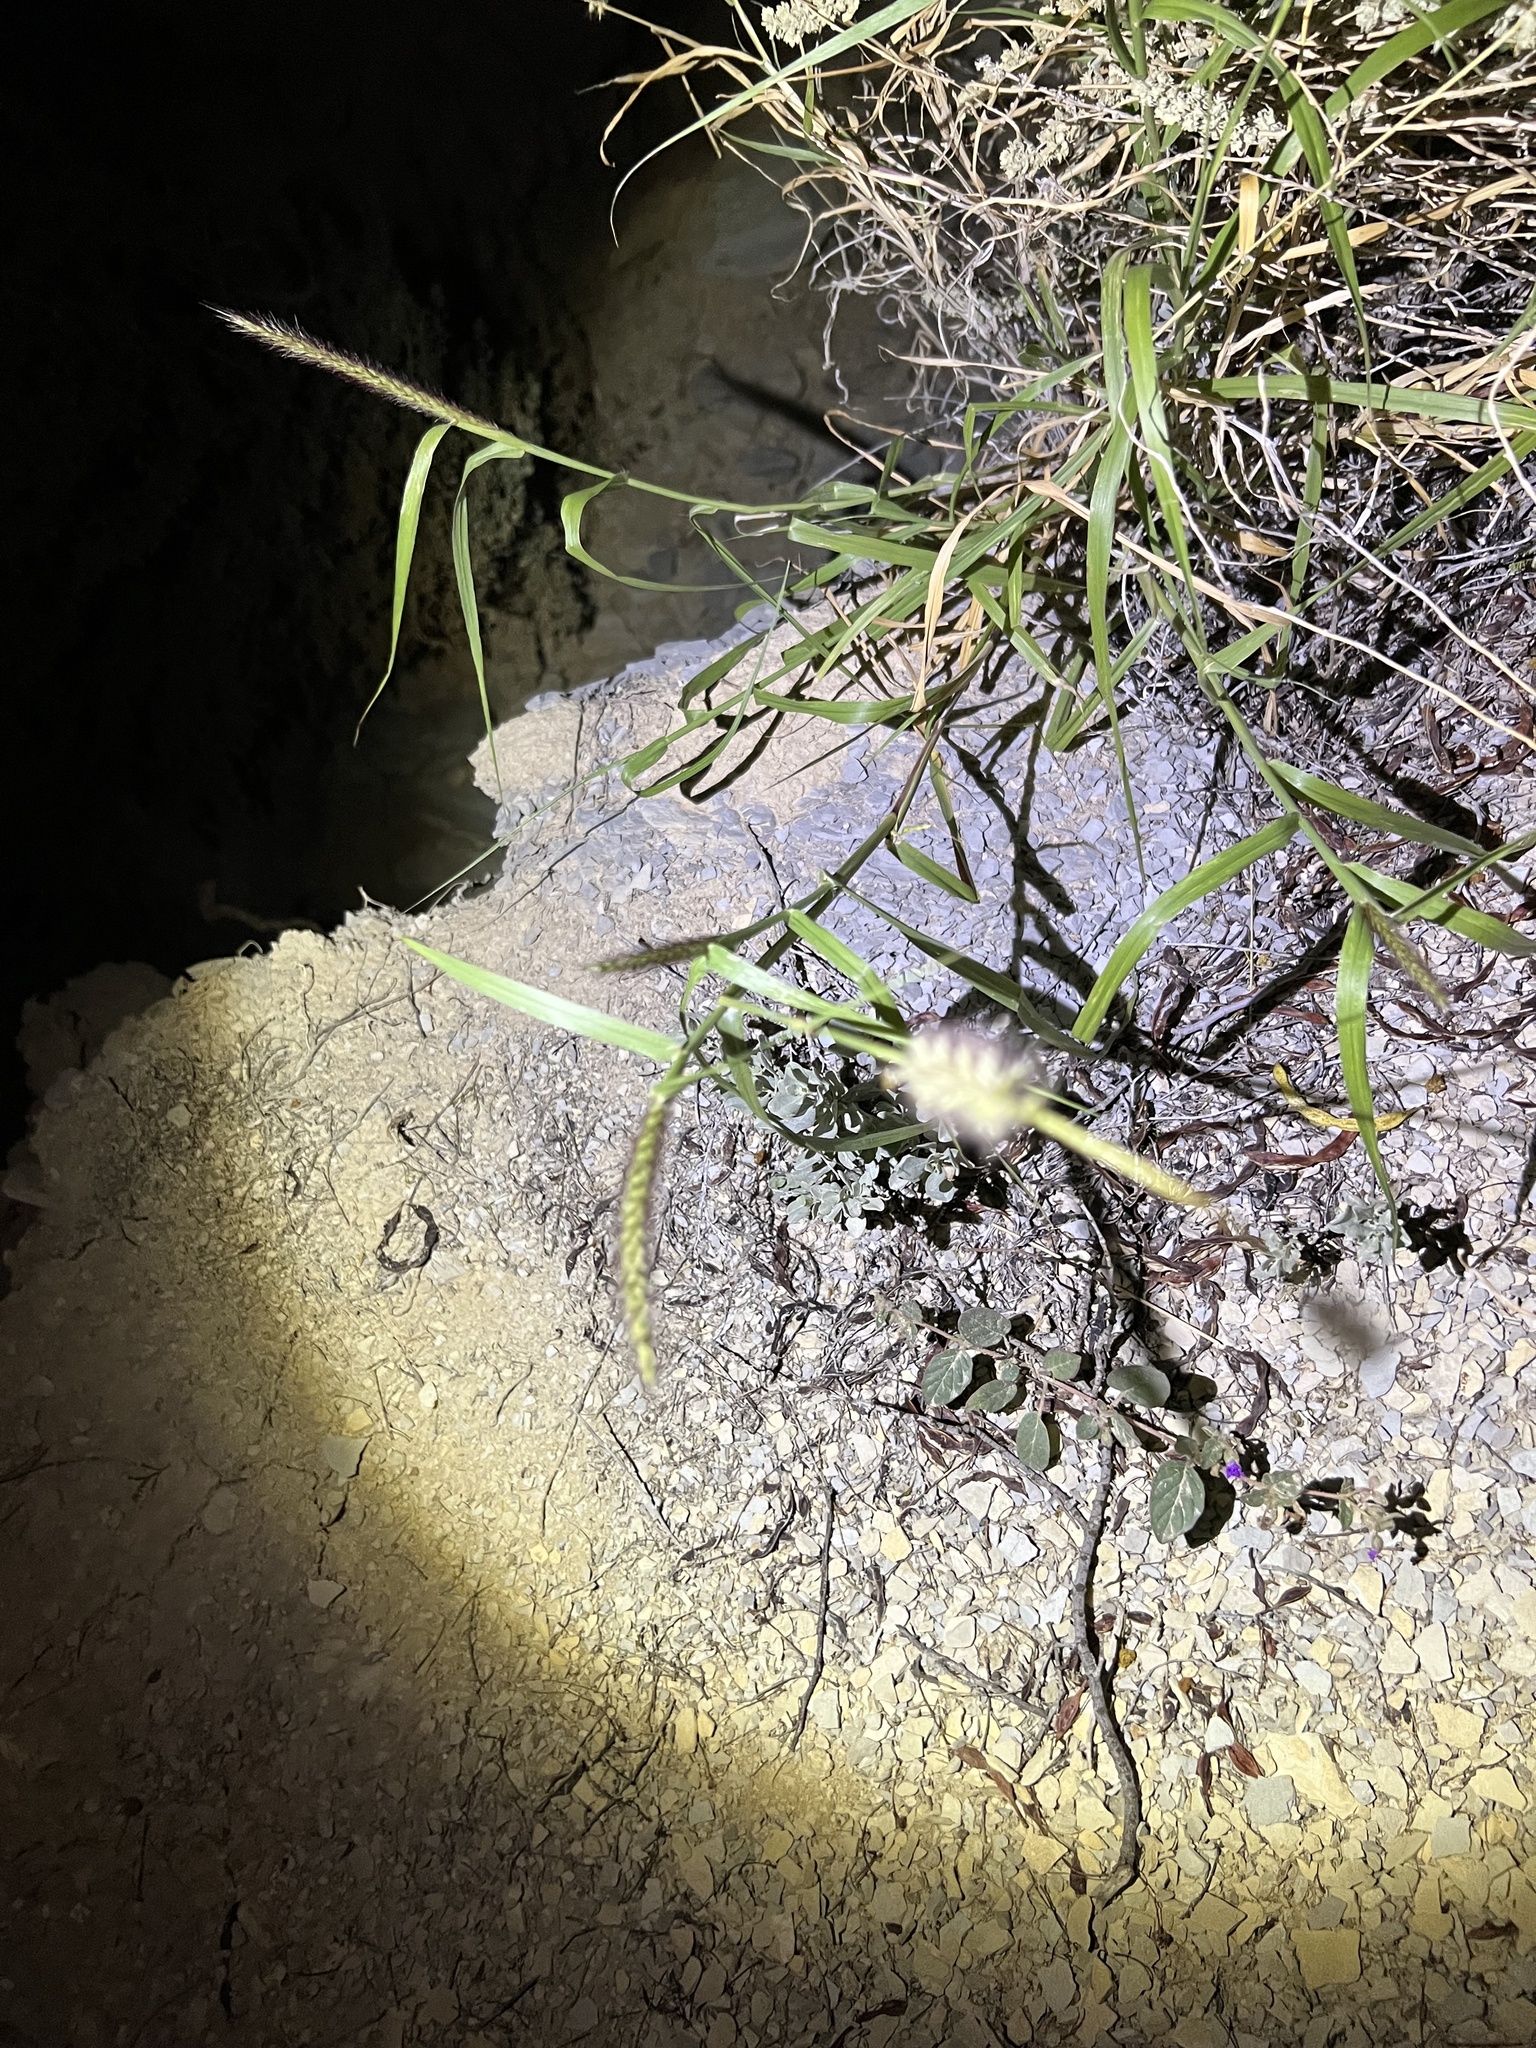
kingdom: Plantae
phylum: Tracheophyta
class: Liliopsida
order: Poales
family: Poaceae
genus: Cenchrus
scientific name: Cenchrus ciliaris
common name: Buffelgrass
